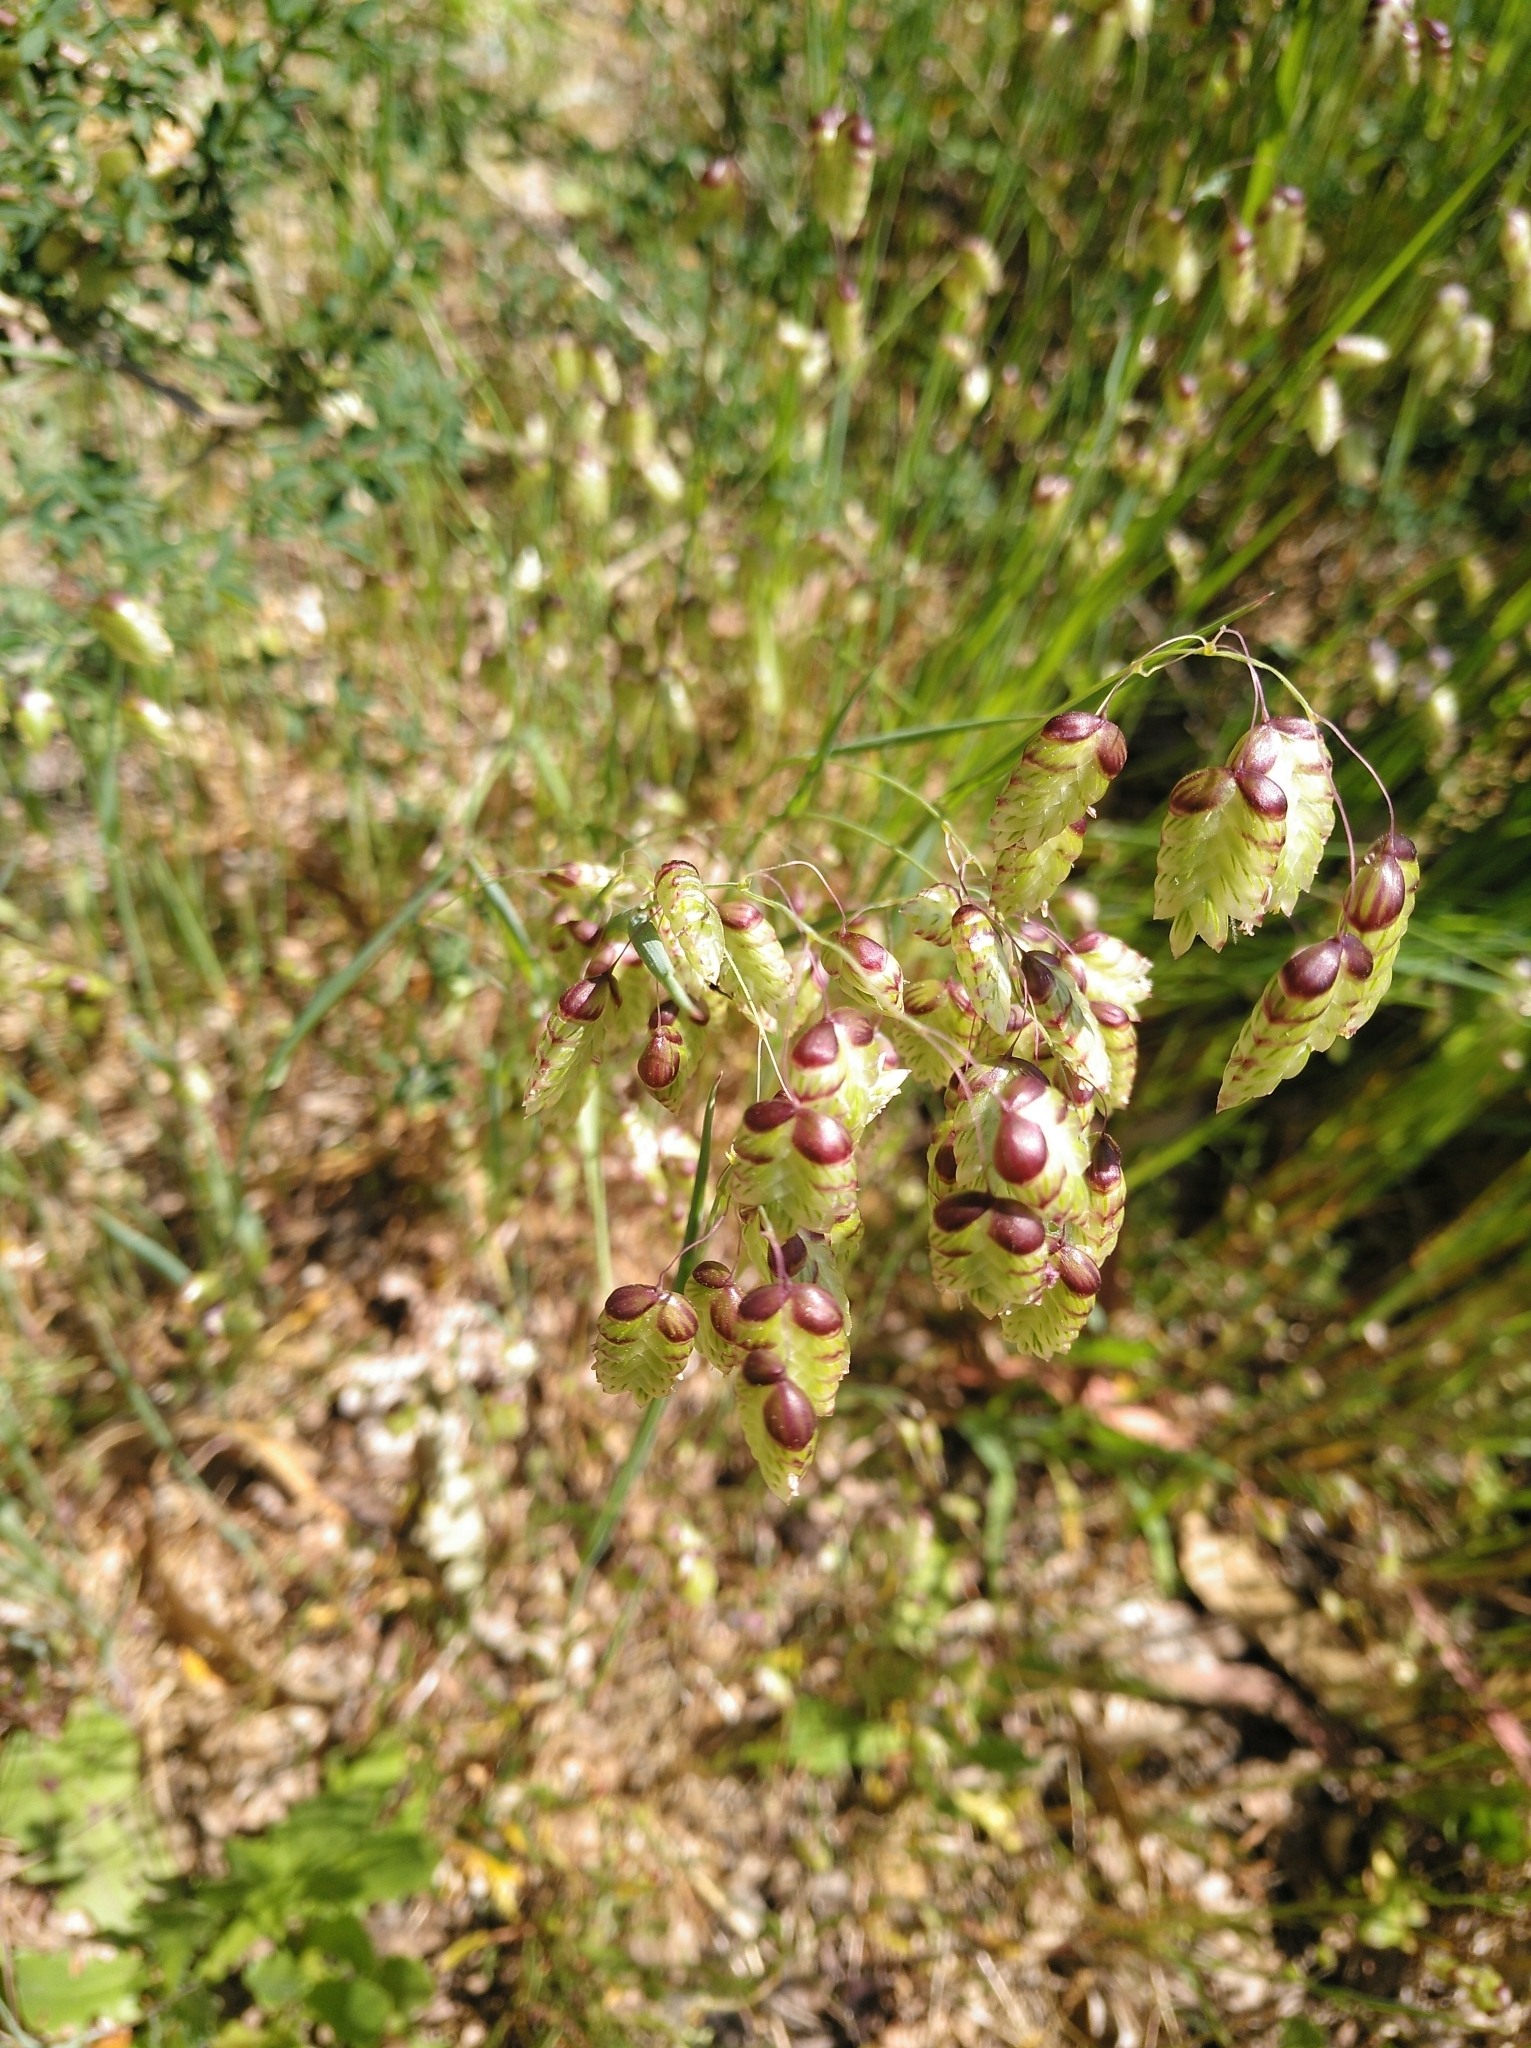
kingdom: Plantae
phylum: Tracheophyta
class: Liliopsida
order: Poales
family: Poaceae
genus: Briza
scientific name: Briza maxima
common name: Big quakinggrass
